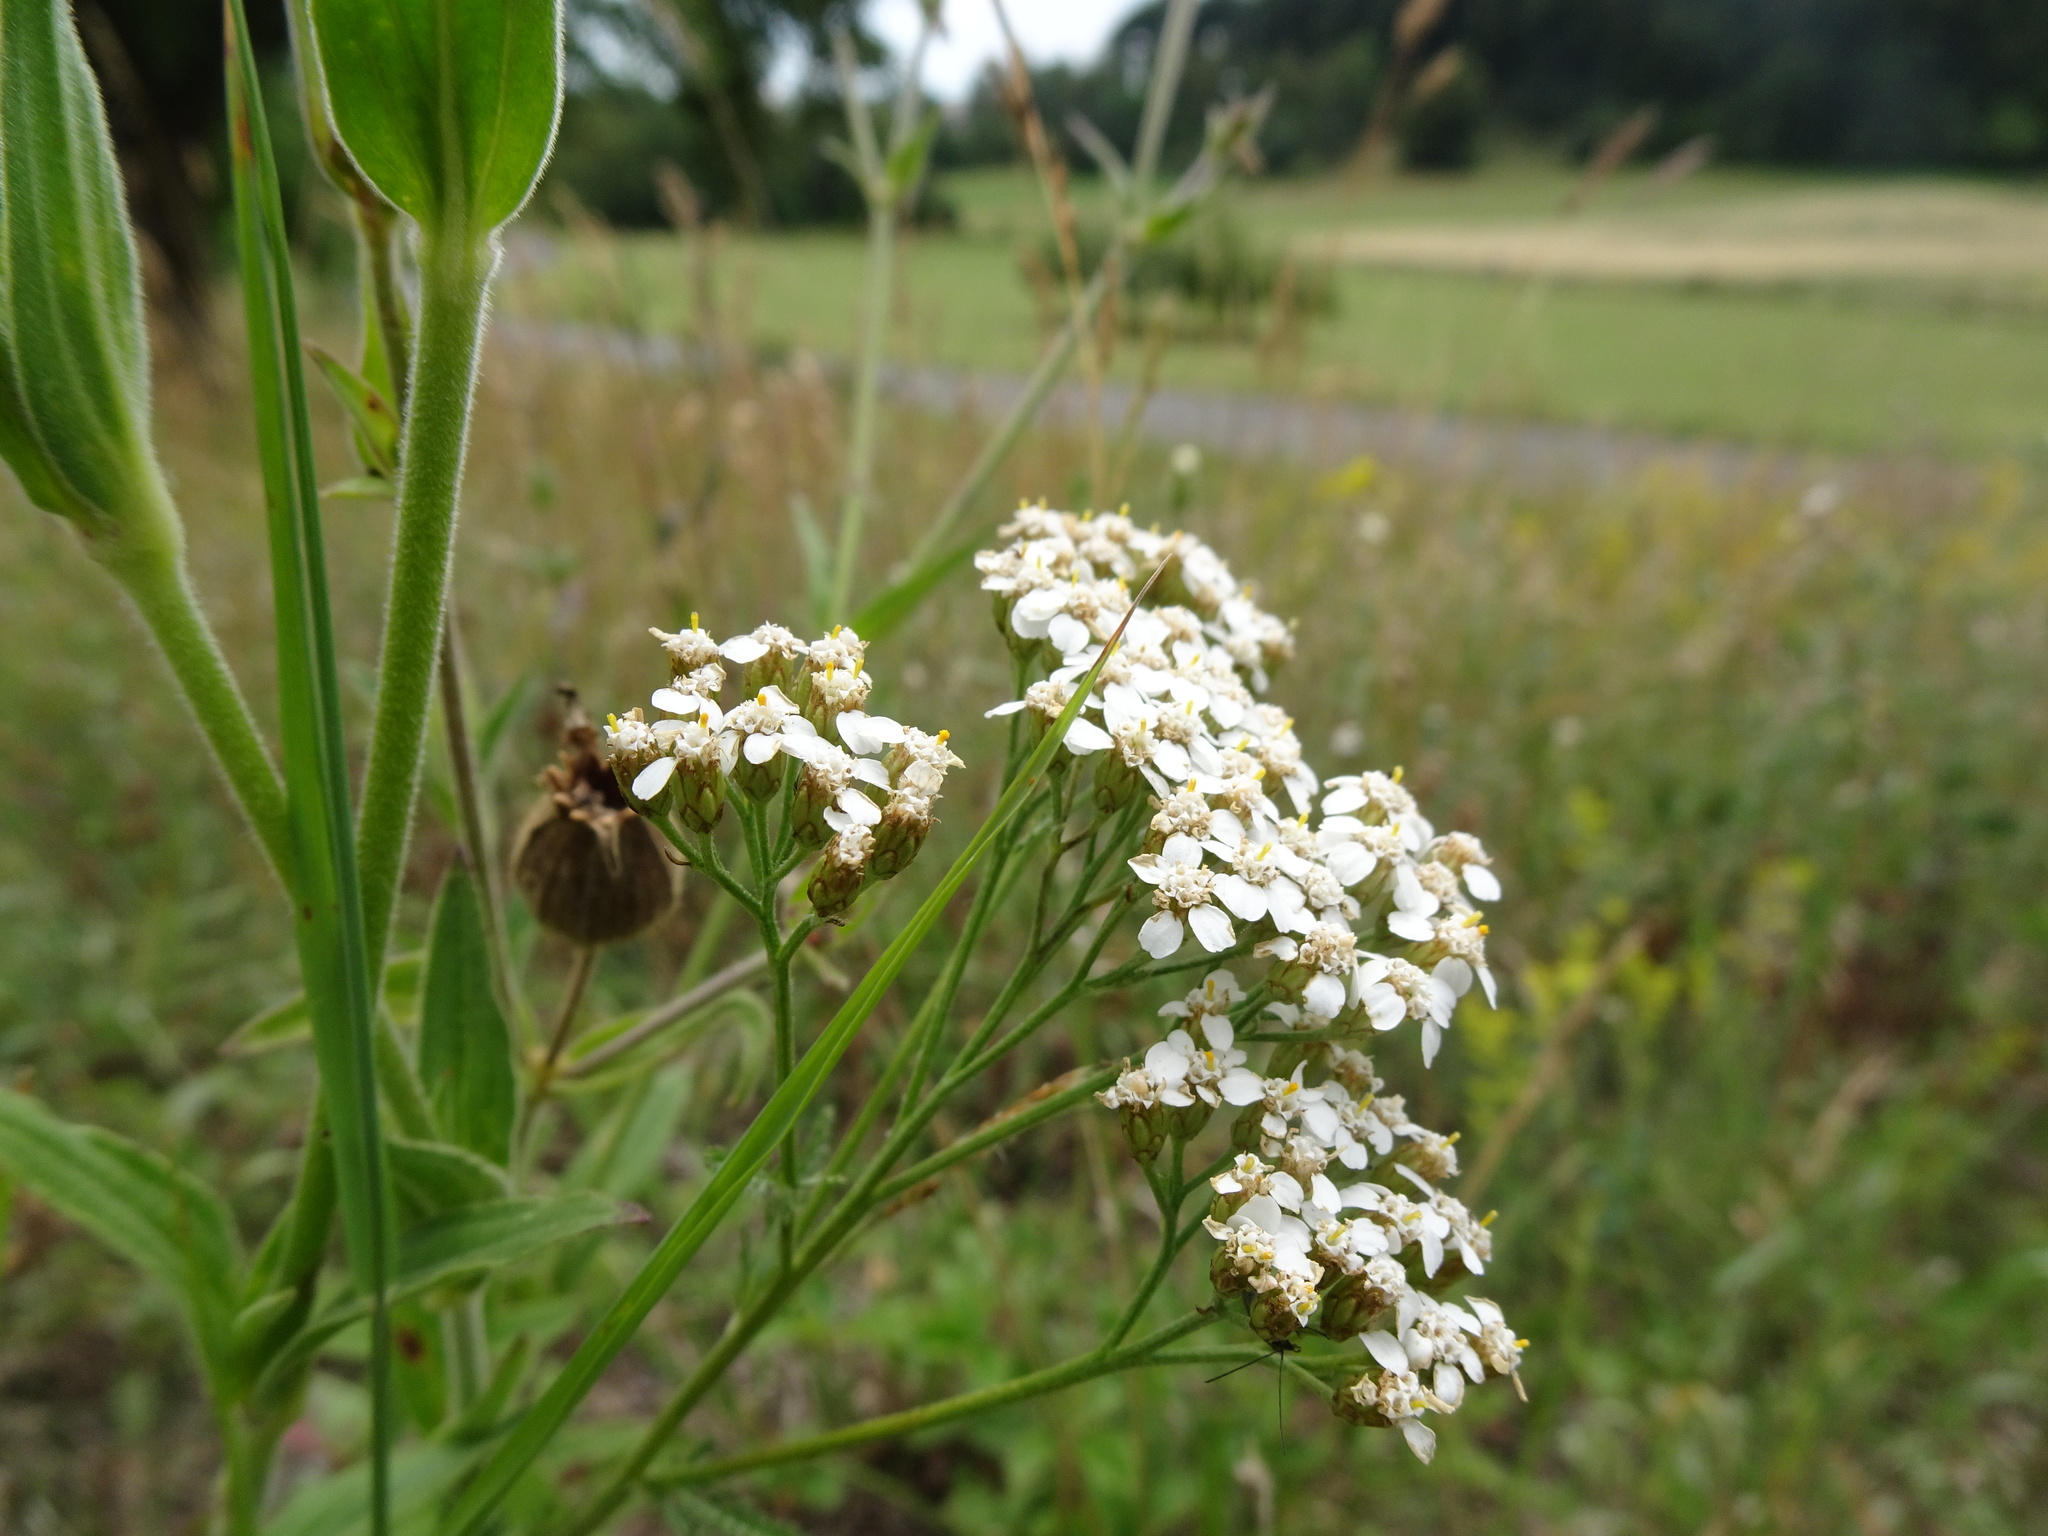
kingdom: Plantae
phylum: Tracheophyta
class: Magnoliopsida
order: Asterales
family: Asteraceae
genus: Achillea
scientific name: Achillea millefolium
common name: Yarrow
